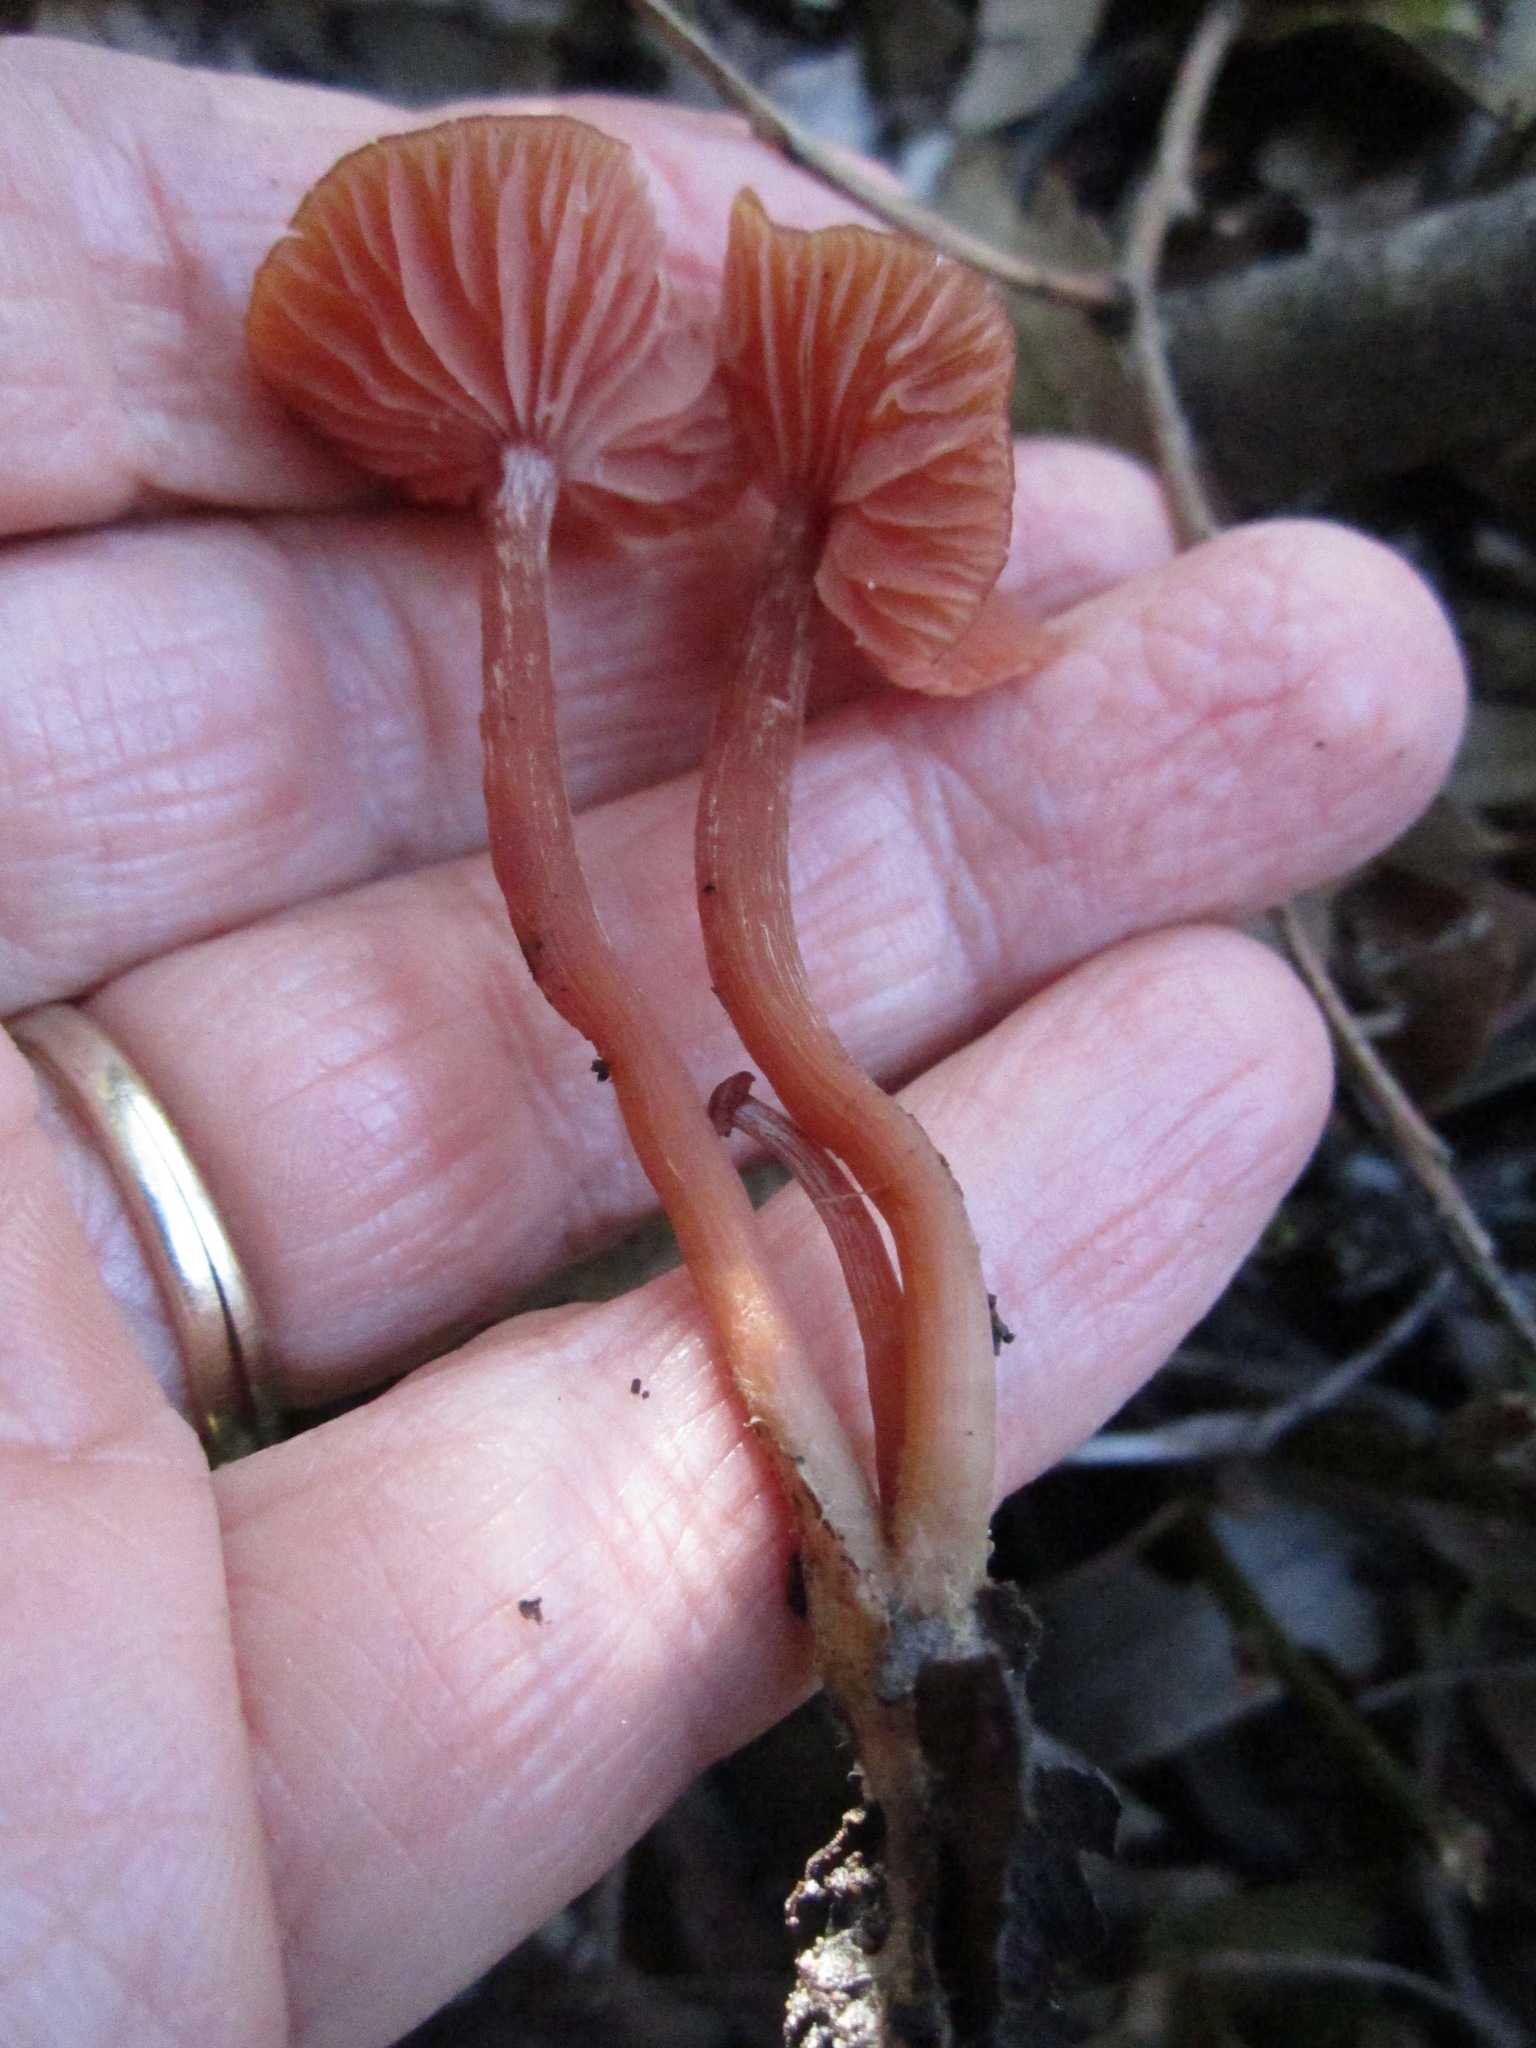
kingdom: Fungi
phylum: Basidiomycota
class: Agaricomycetes
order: Agaricales
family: Hydnangiaceae
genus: Laccaria
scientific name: Laccaria laccata
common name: Deceiver
